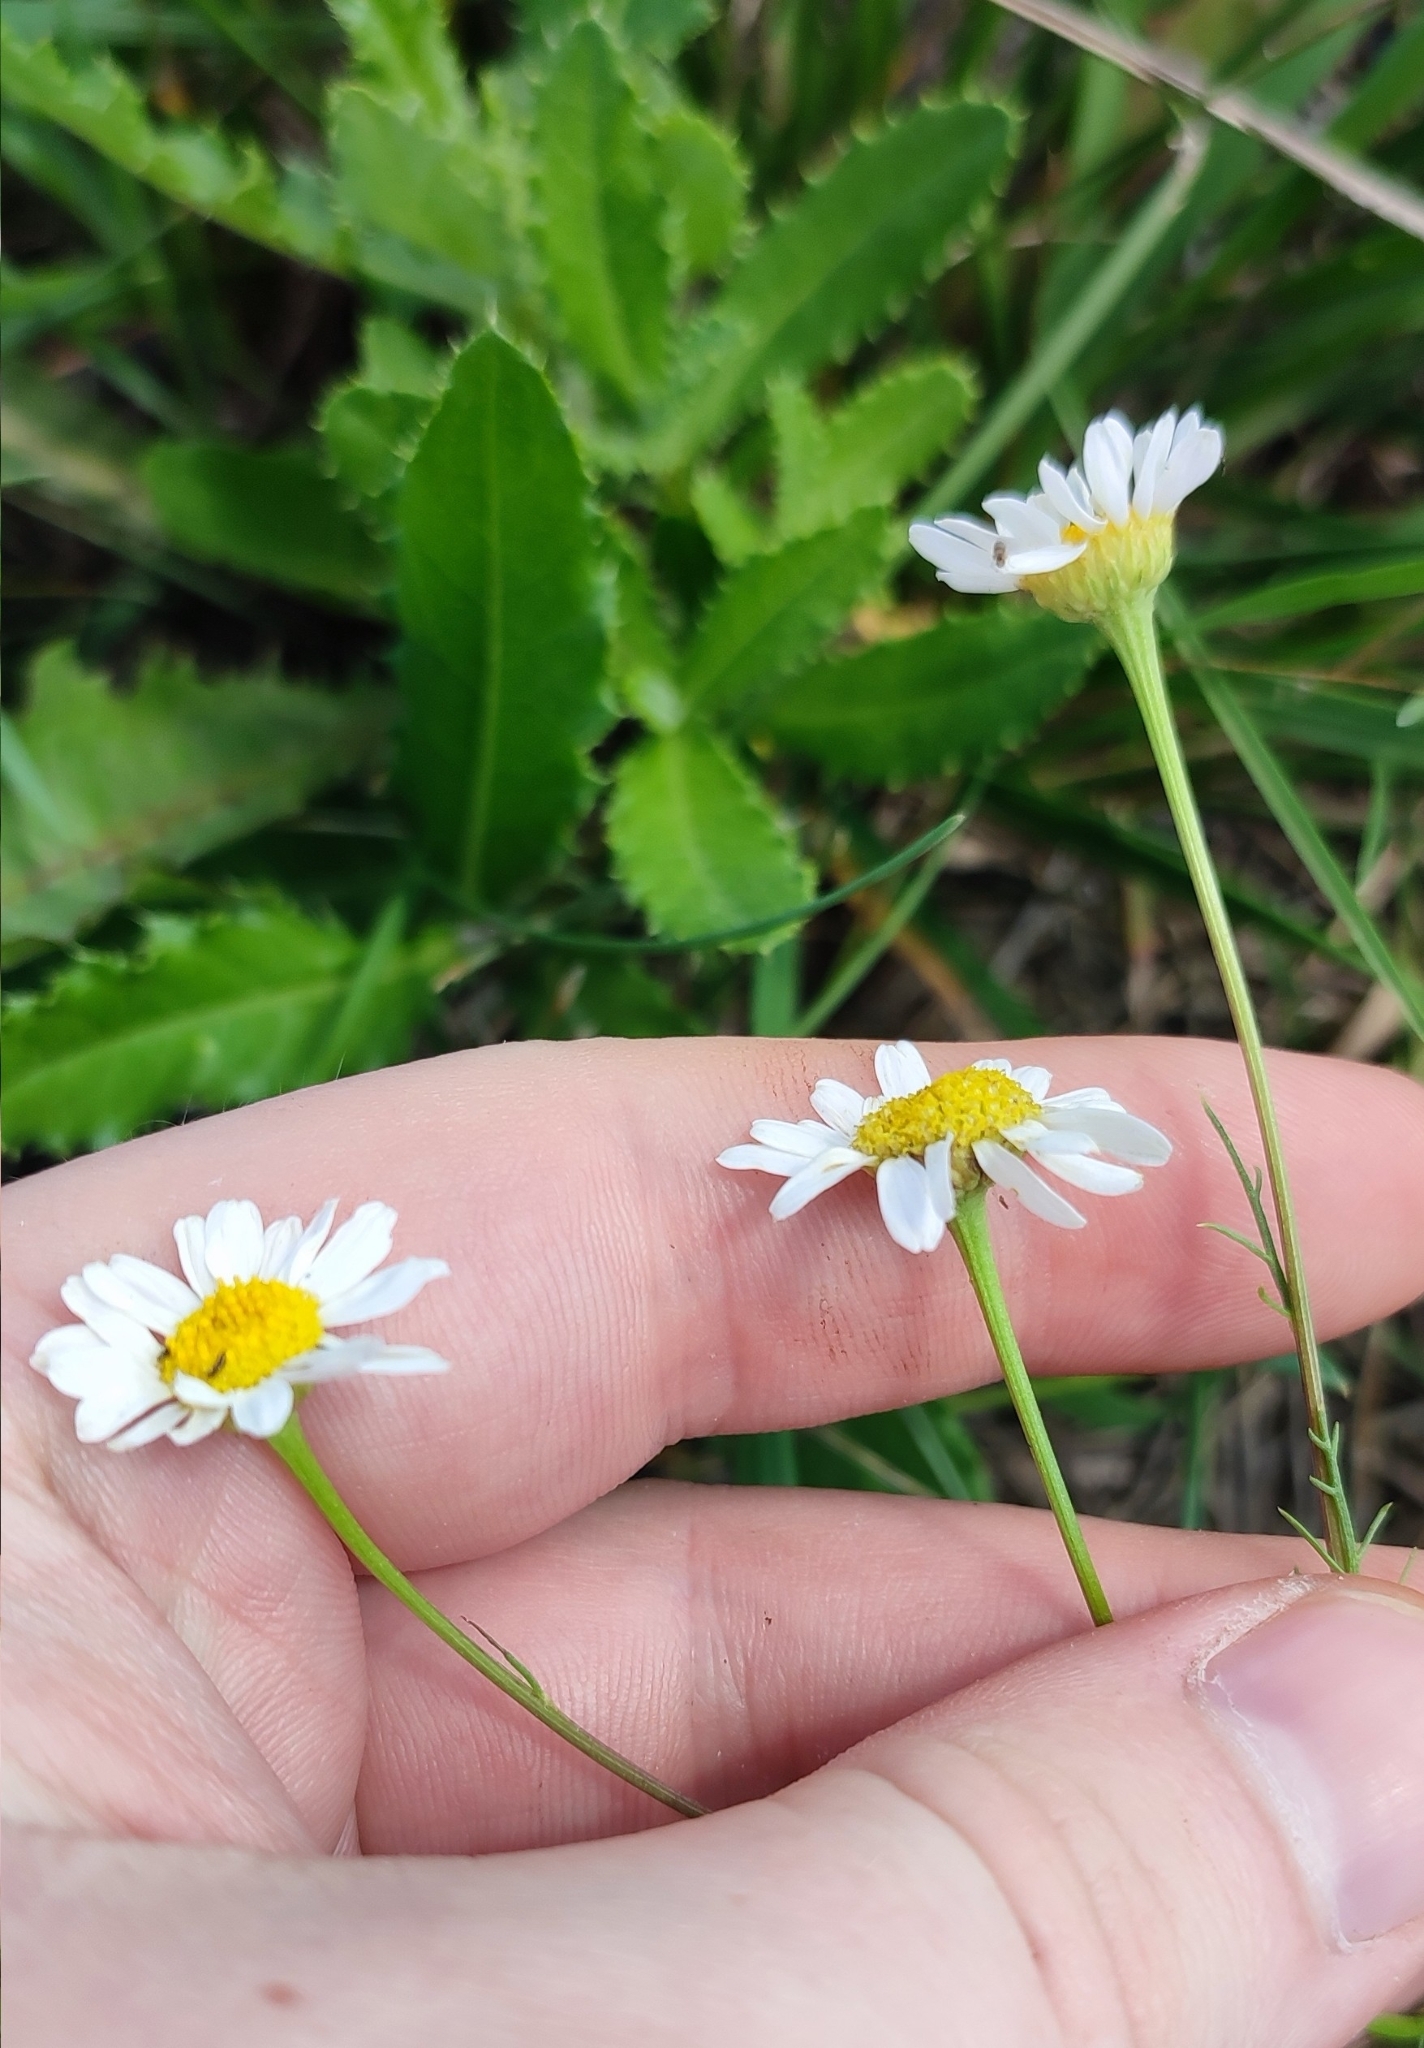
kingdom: Plantae
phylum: Tracheophyta
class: Magnoliopsida
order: Asterales
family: Asteraceae
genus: Tripleurospermum
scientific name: Tripleurospermum inodorum
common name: Scentless mayweed
